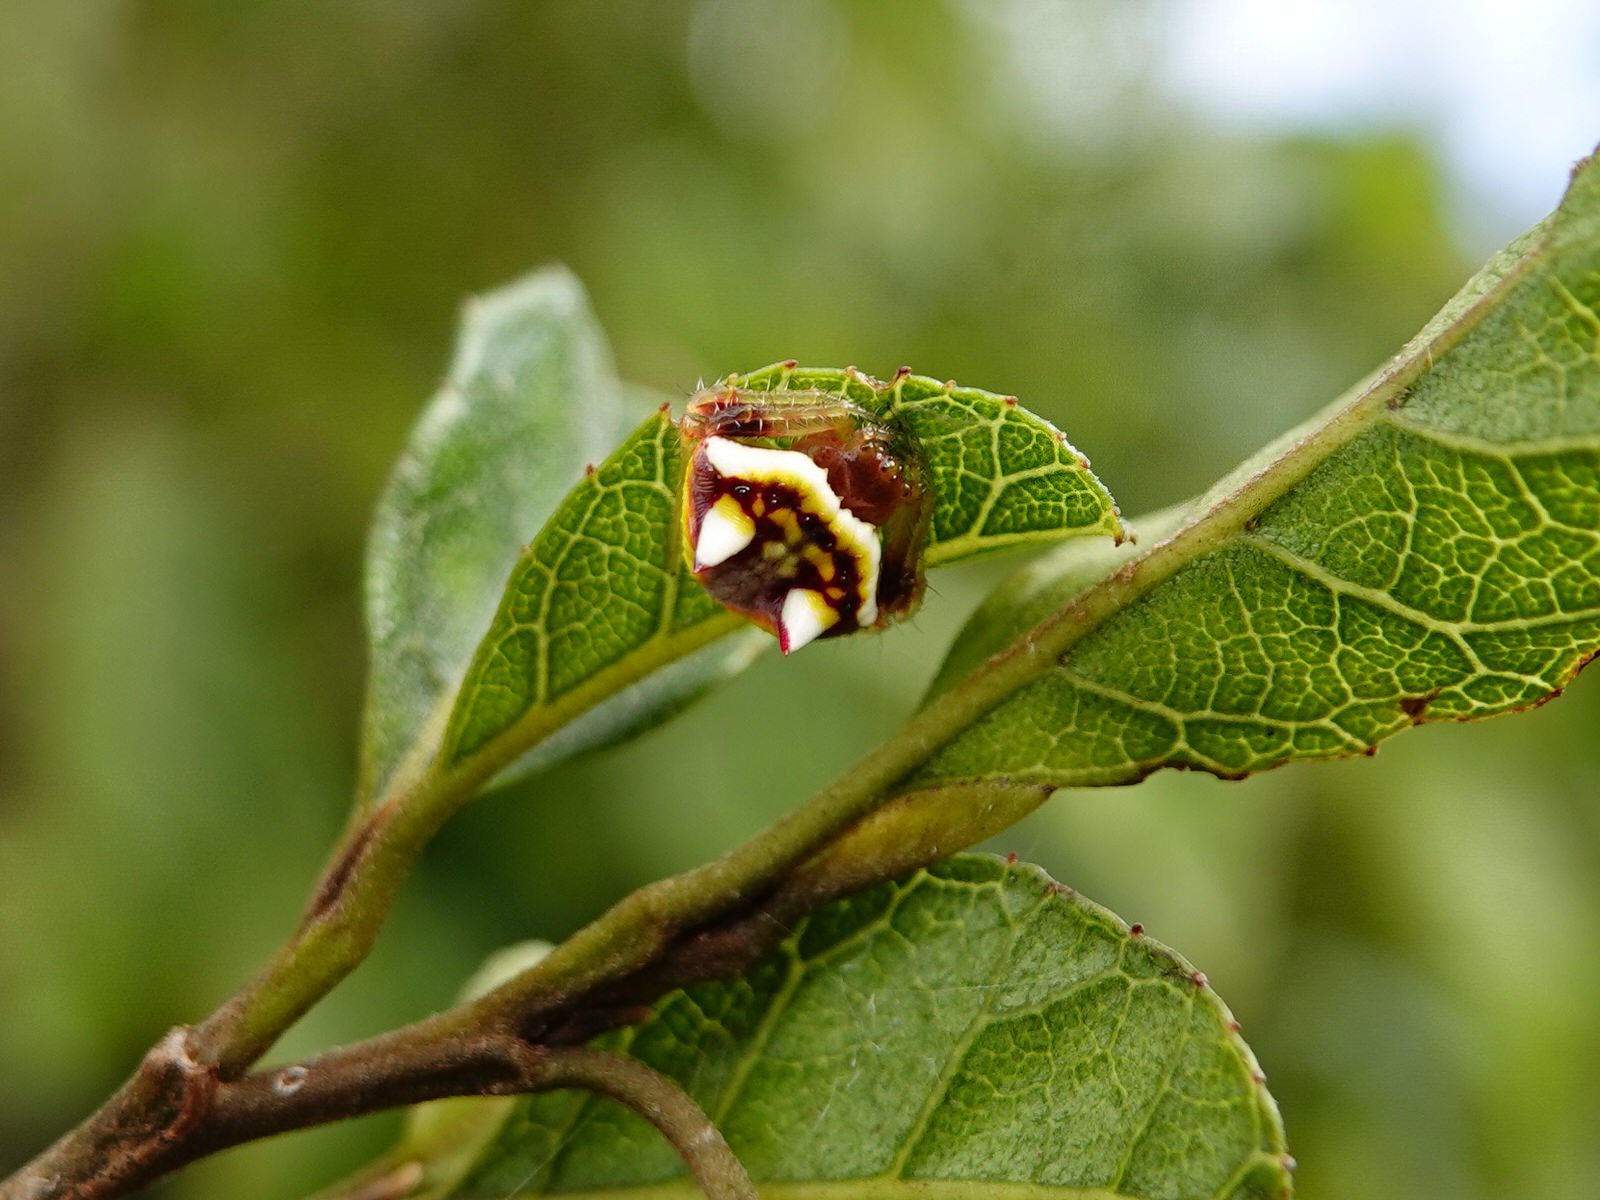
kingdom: Animalia
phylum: Arthropoda
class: Arachnida
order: Araneae
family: Araneidae
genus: Poecilopachys
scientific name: Poecilopachys australasia
